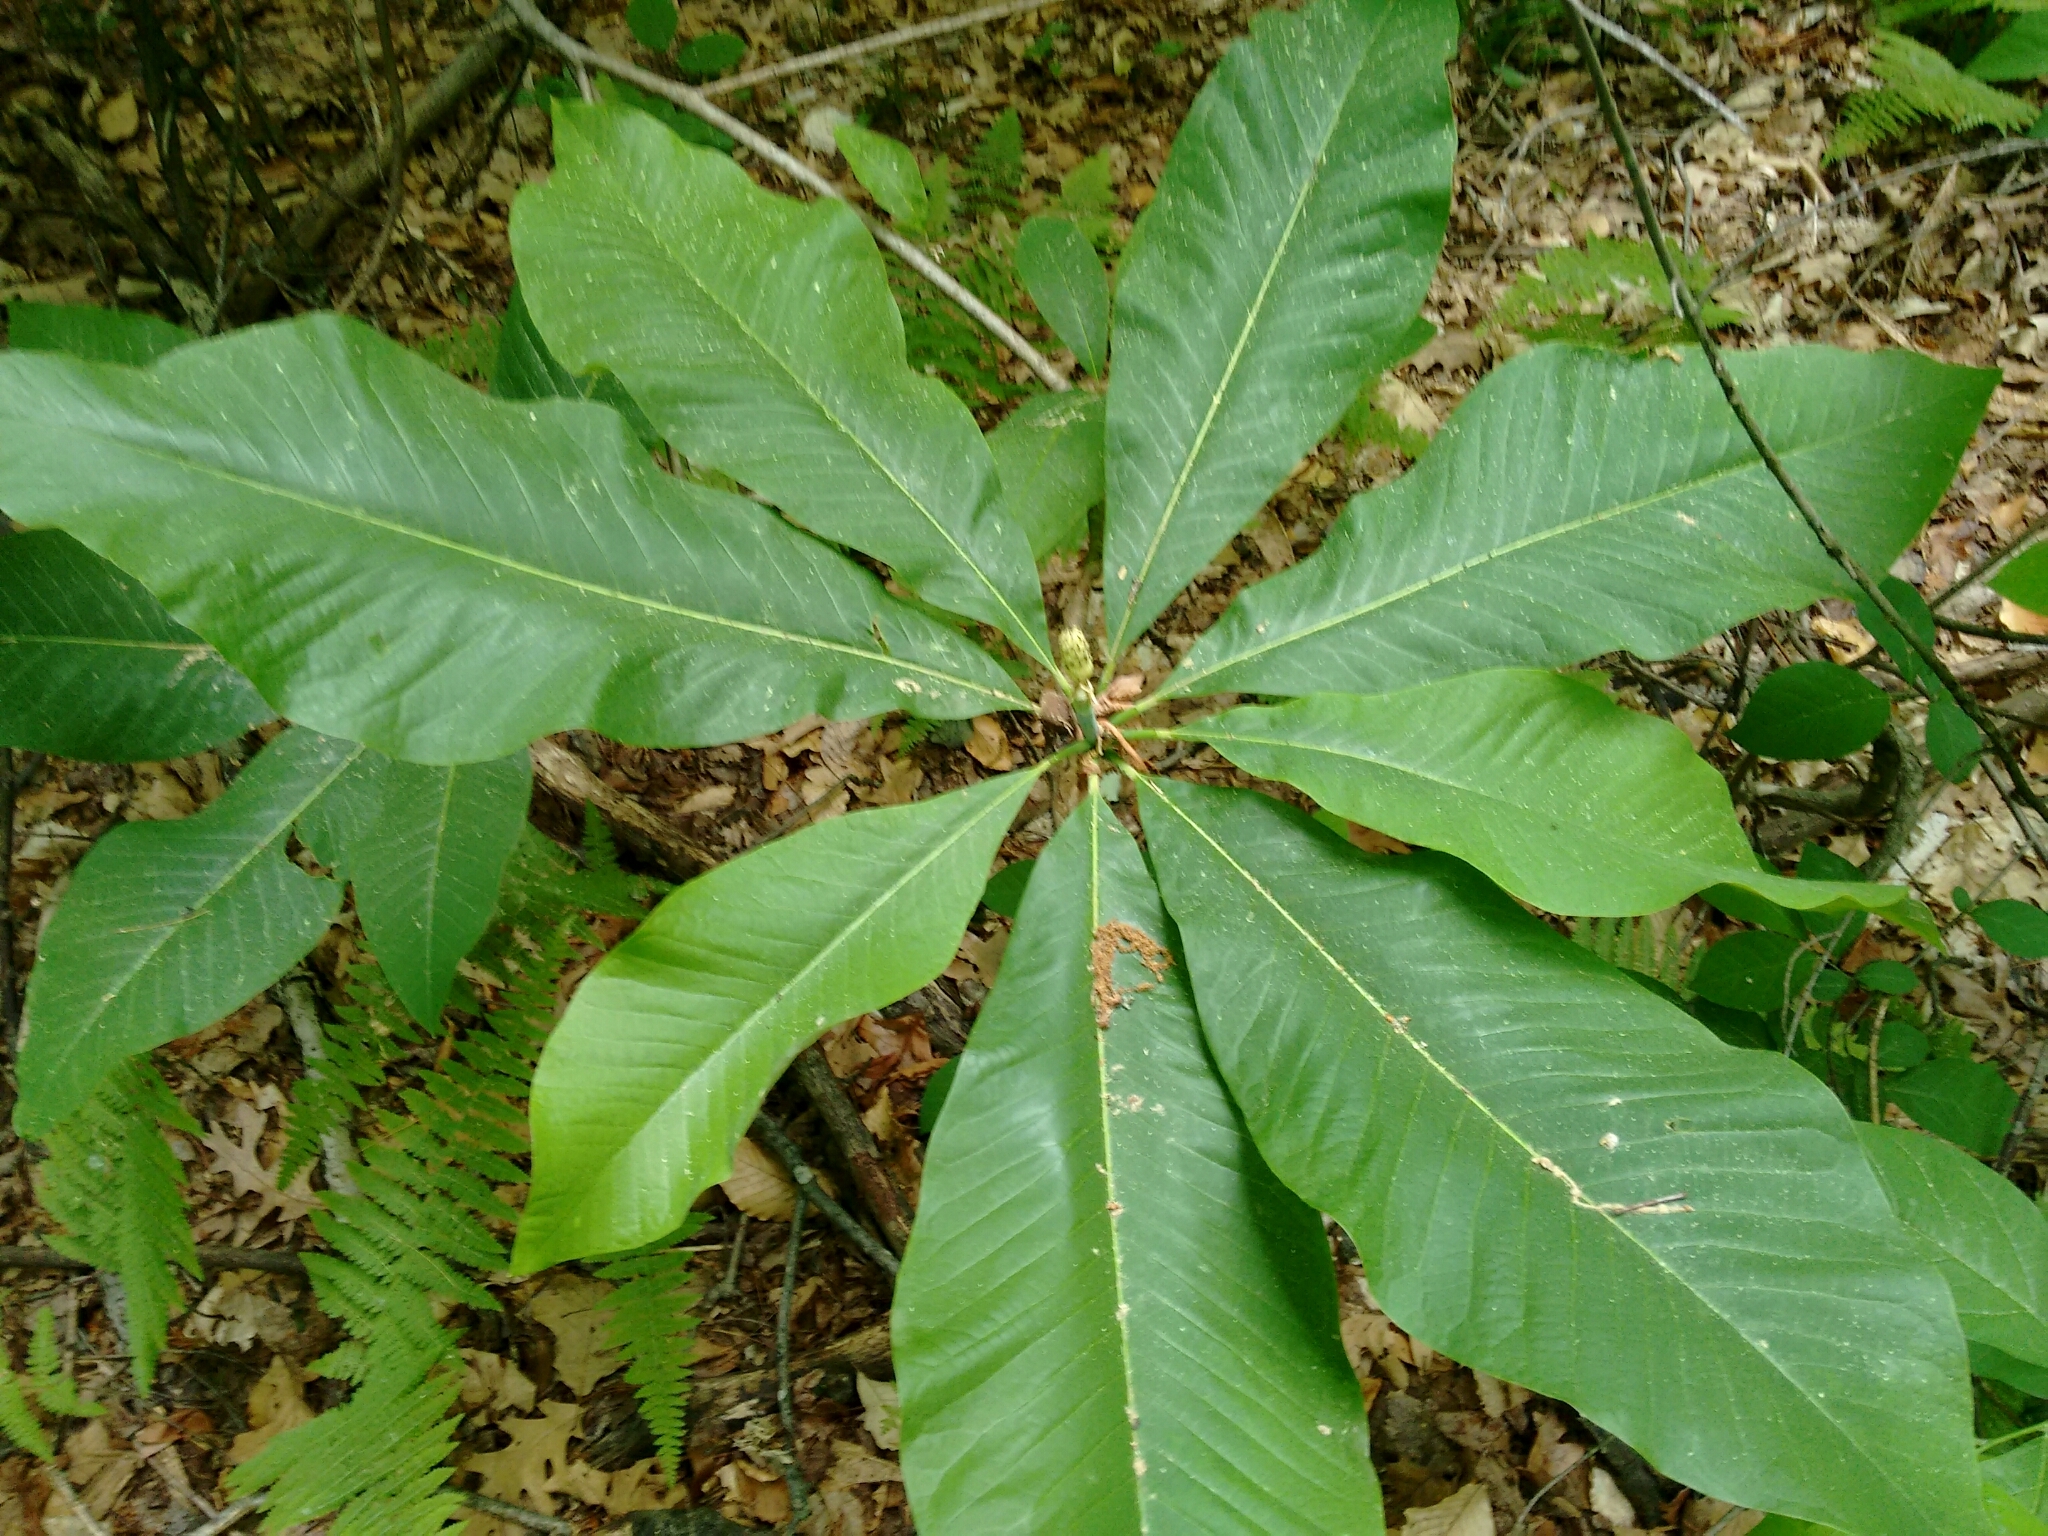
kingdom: Plantae
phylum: Tracheophyta
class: Magnoliopsida
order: Magnoliales
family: Magnoliaceae
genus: Magnolia
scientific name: Magnolia tripetala
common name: Umbrella magnolia
